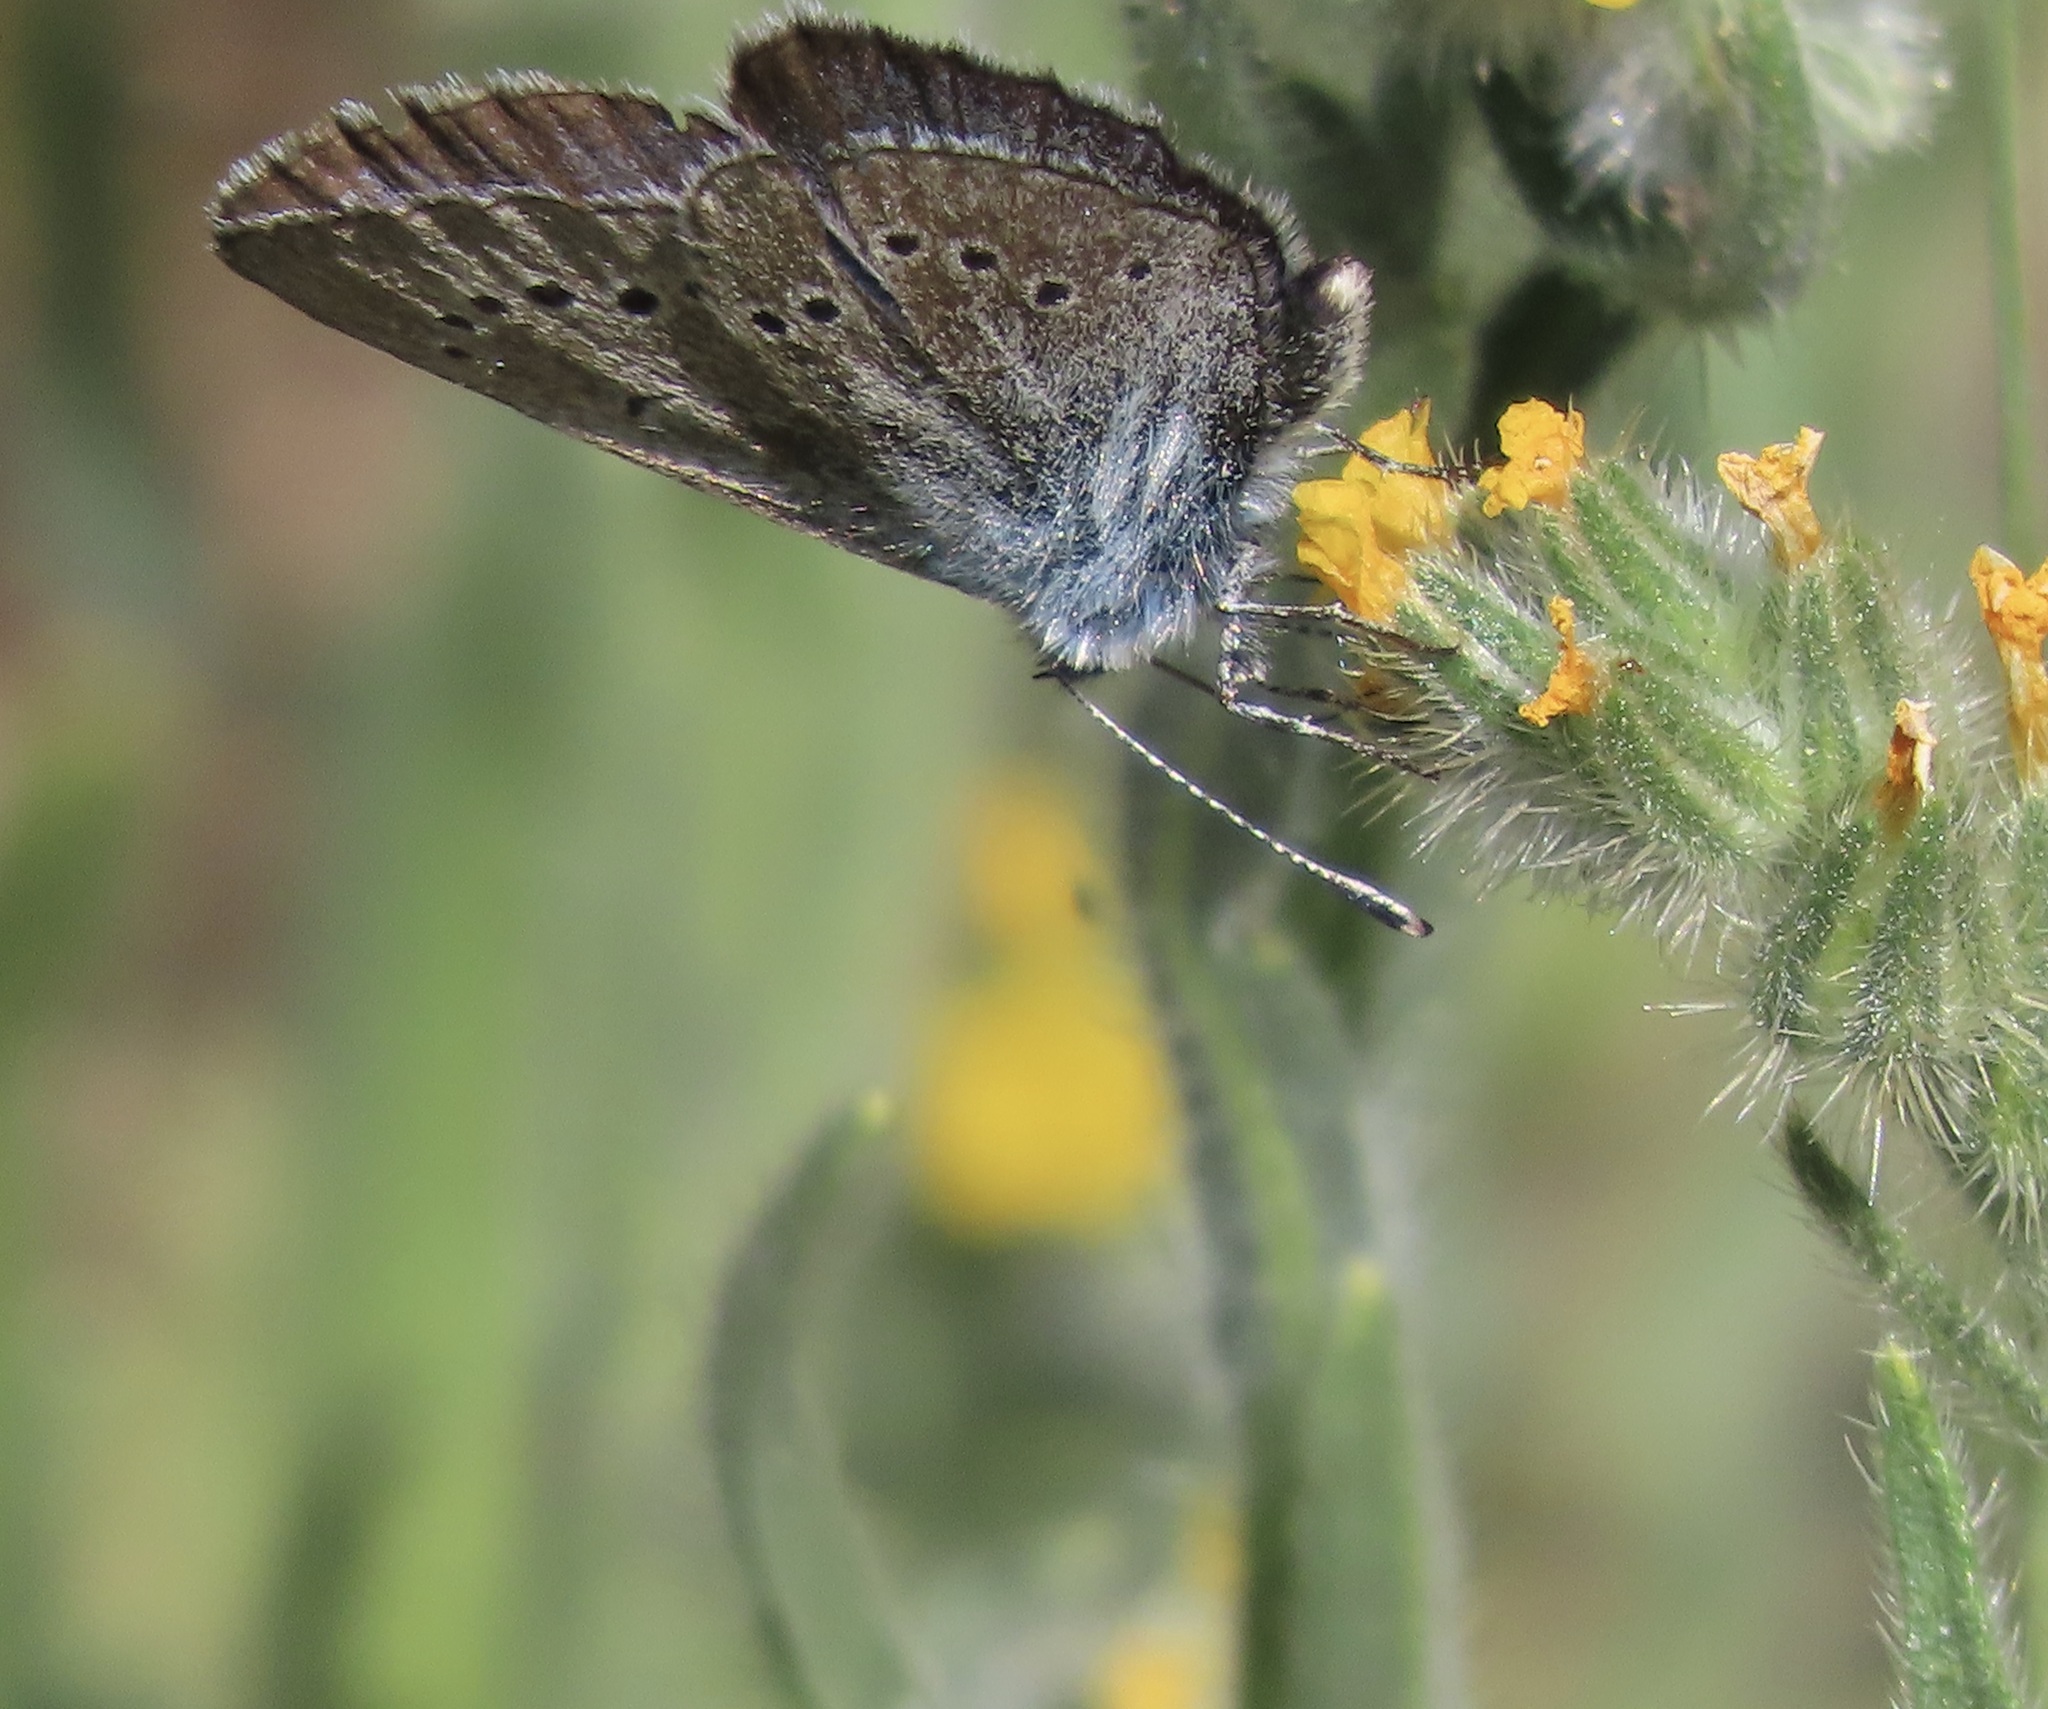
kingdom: Animalia
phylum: Arthropoda
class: Insecta
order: Lepidoptera
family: Lycaenidae
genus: Glaucopsyche
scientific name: Glaucopsyche lygdamus
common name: Silvery blue
